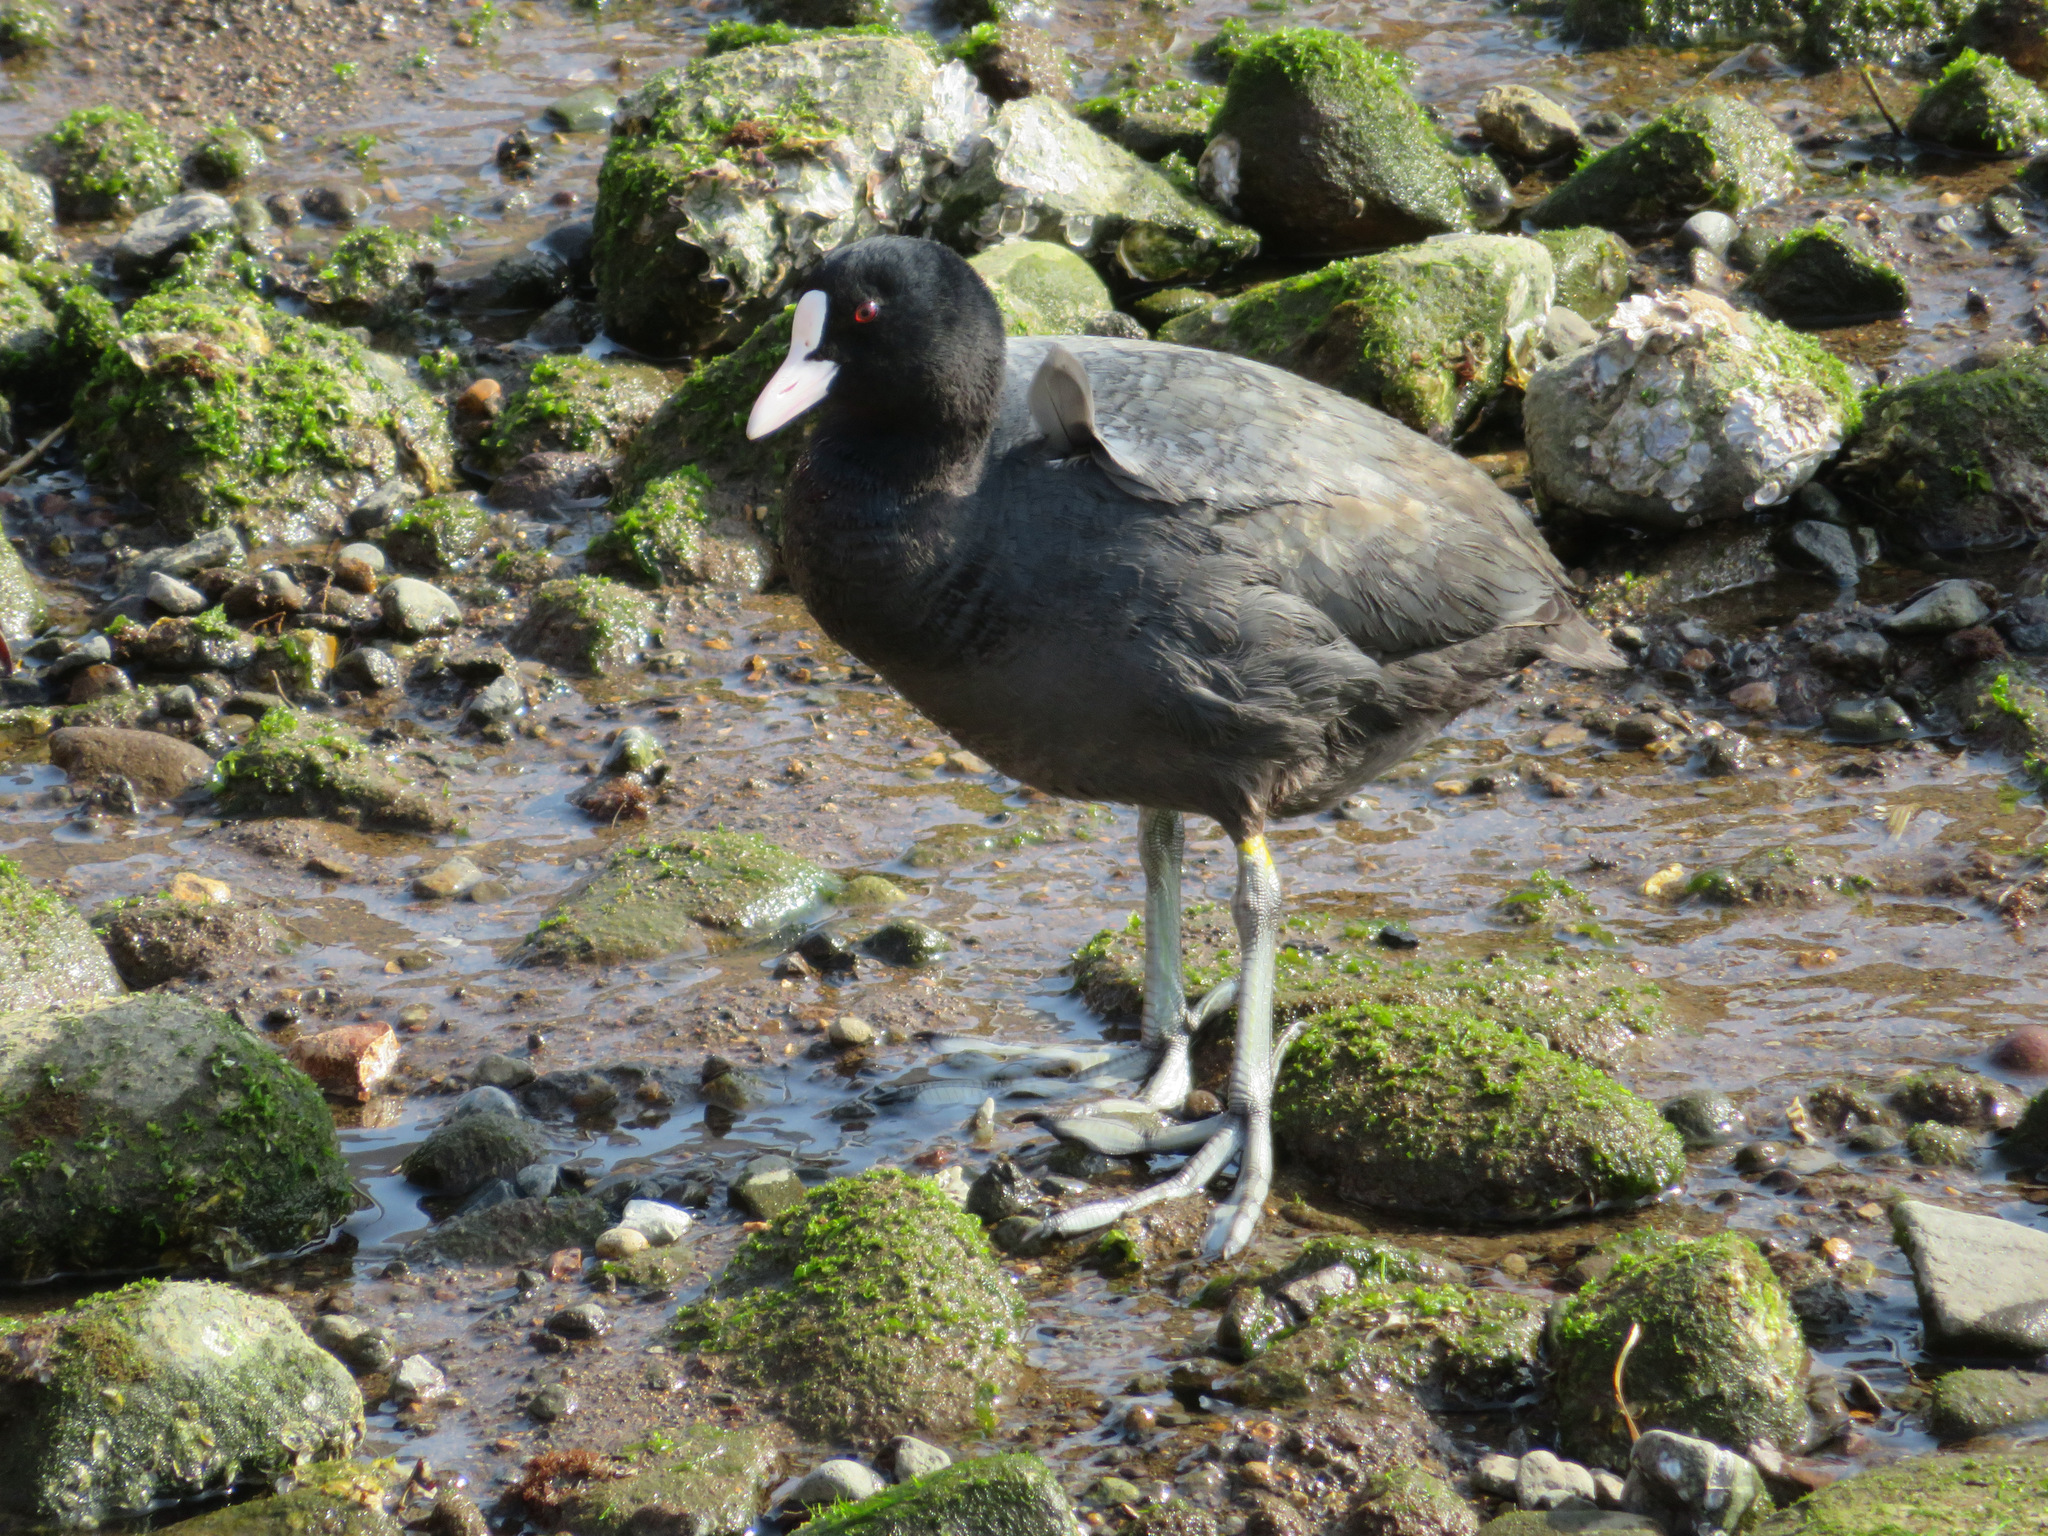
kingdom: Animalia
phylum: Chordata
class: Aves
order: Gruiformes
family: Rallidae
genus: Fulica
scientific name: Fulica atra
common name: Eurasian coot
